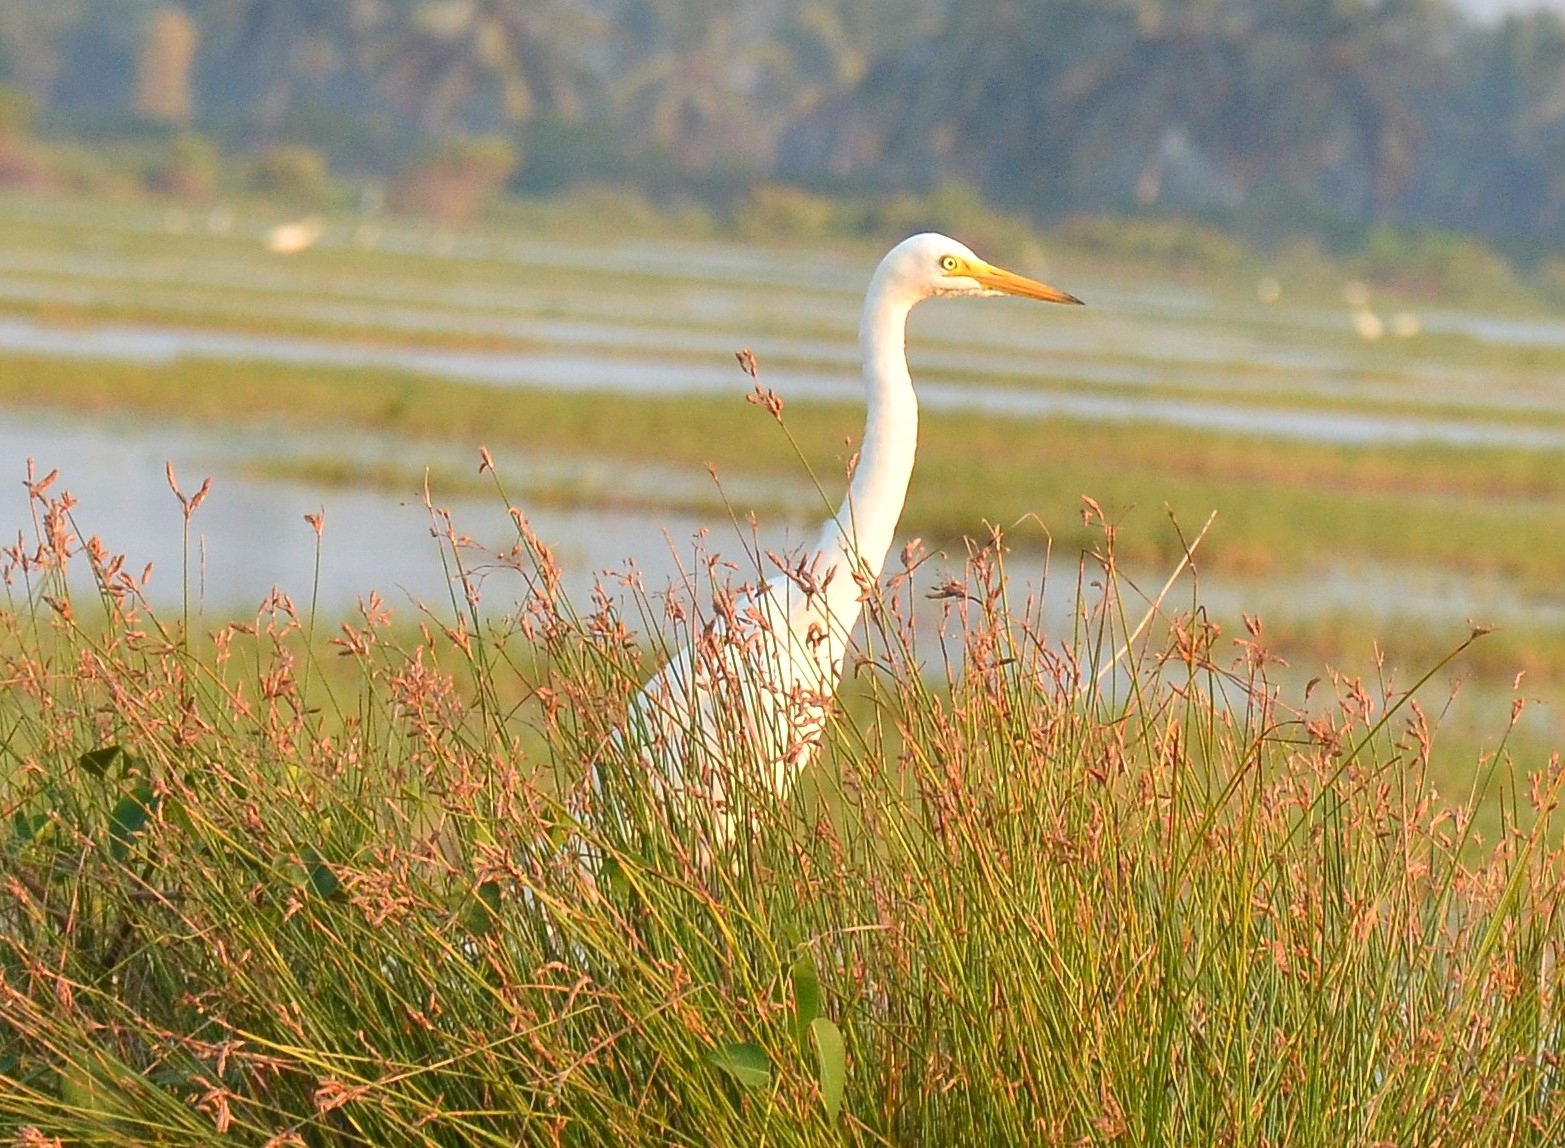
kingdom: Animalia
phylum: Chordata
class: Aves
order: Pelecaniformes
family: Ardeidae
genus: Egretta
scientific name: Egretta intermedia
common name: Intermediate egret
